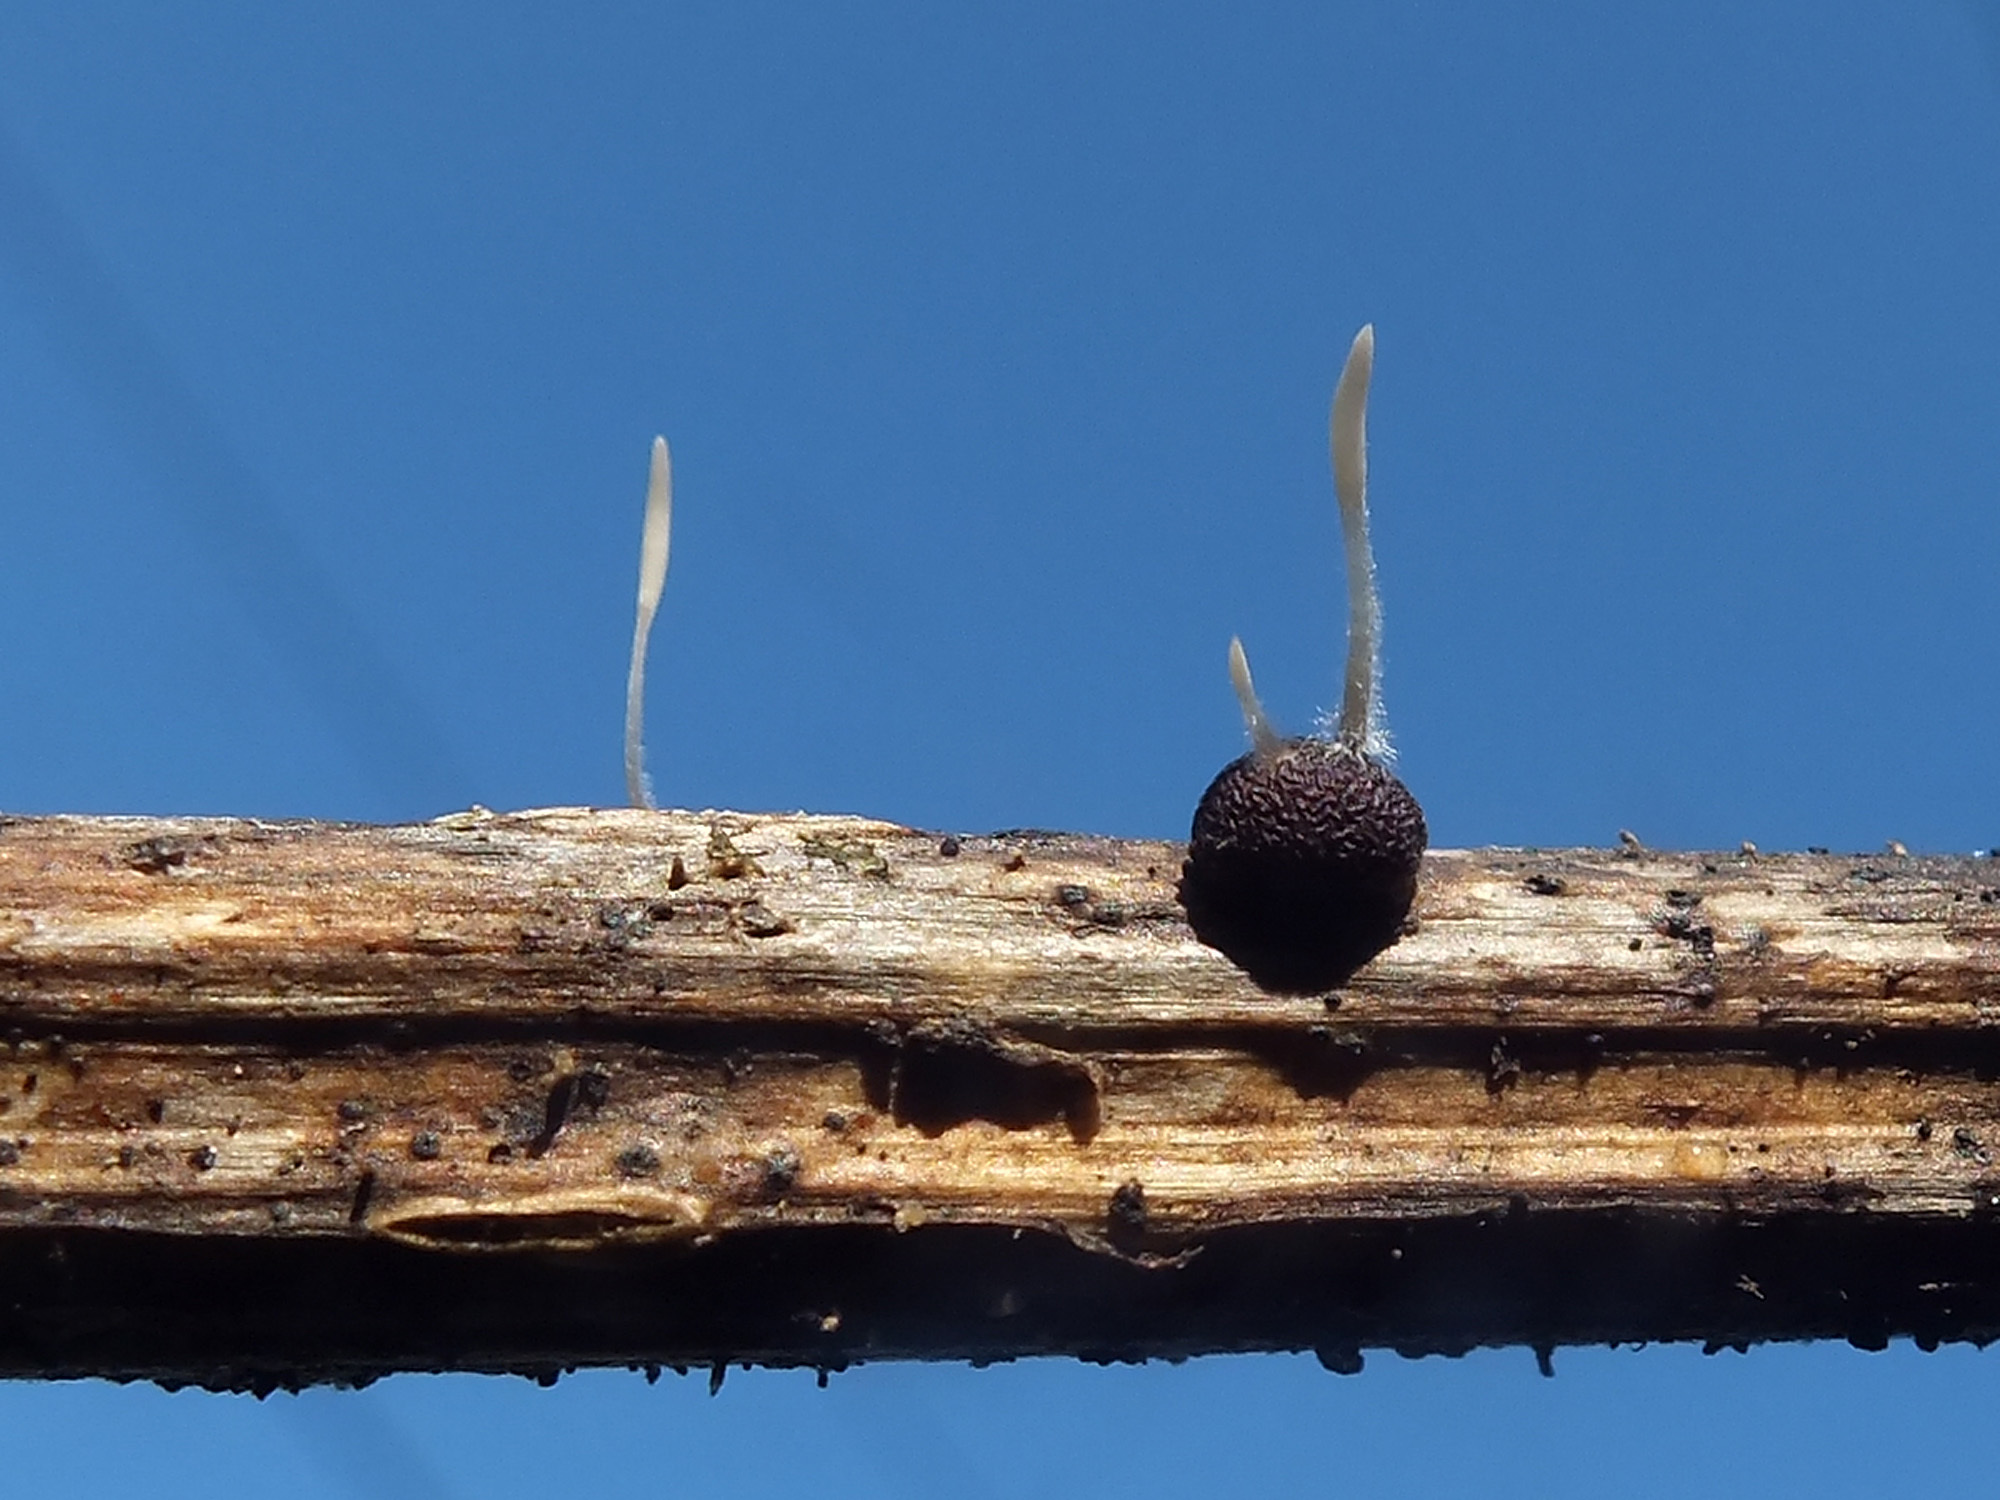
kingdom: Fungi
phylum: Basidiomycota
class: Agaricomycetes
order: Agaricales
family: Typhulaceae
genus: Typhula
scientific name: Typhula variabilis
